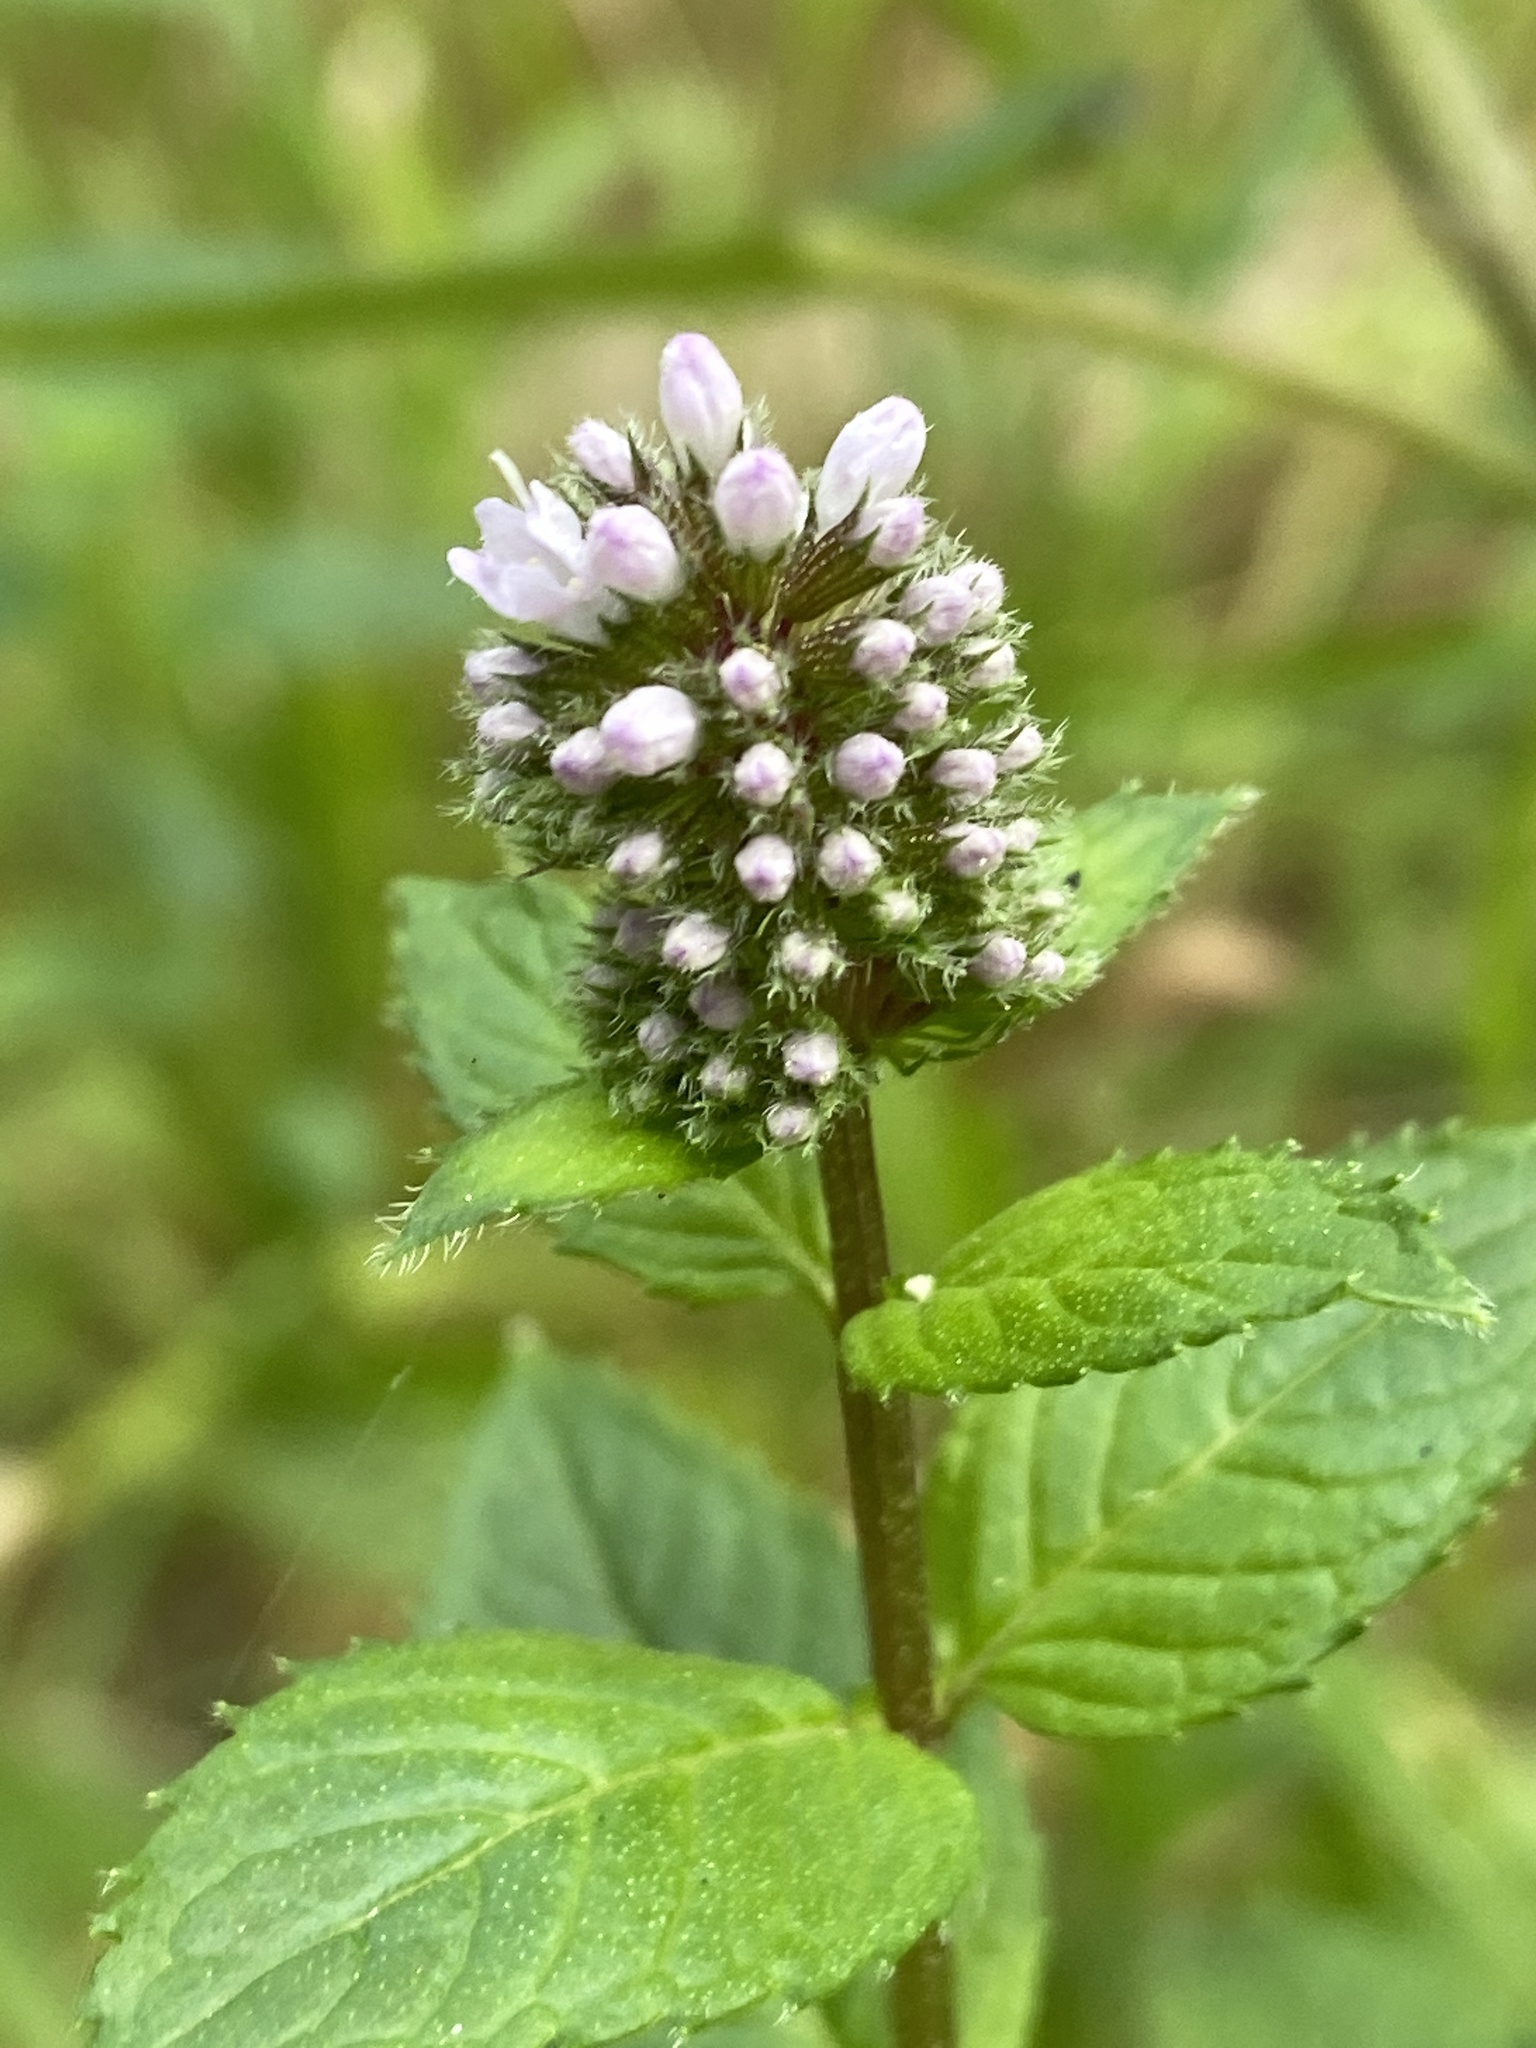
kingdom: Plantae
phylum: Tracheophyta
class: Magnoliopsida
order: Lamiales
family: Lamiaceae
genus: Mentha
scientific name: Mentha aquatica
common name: Water mint
